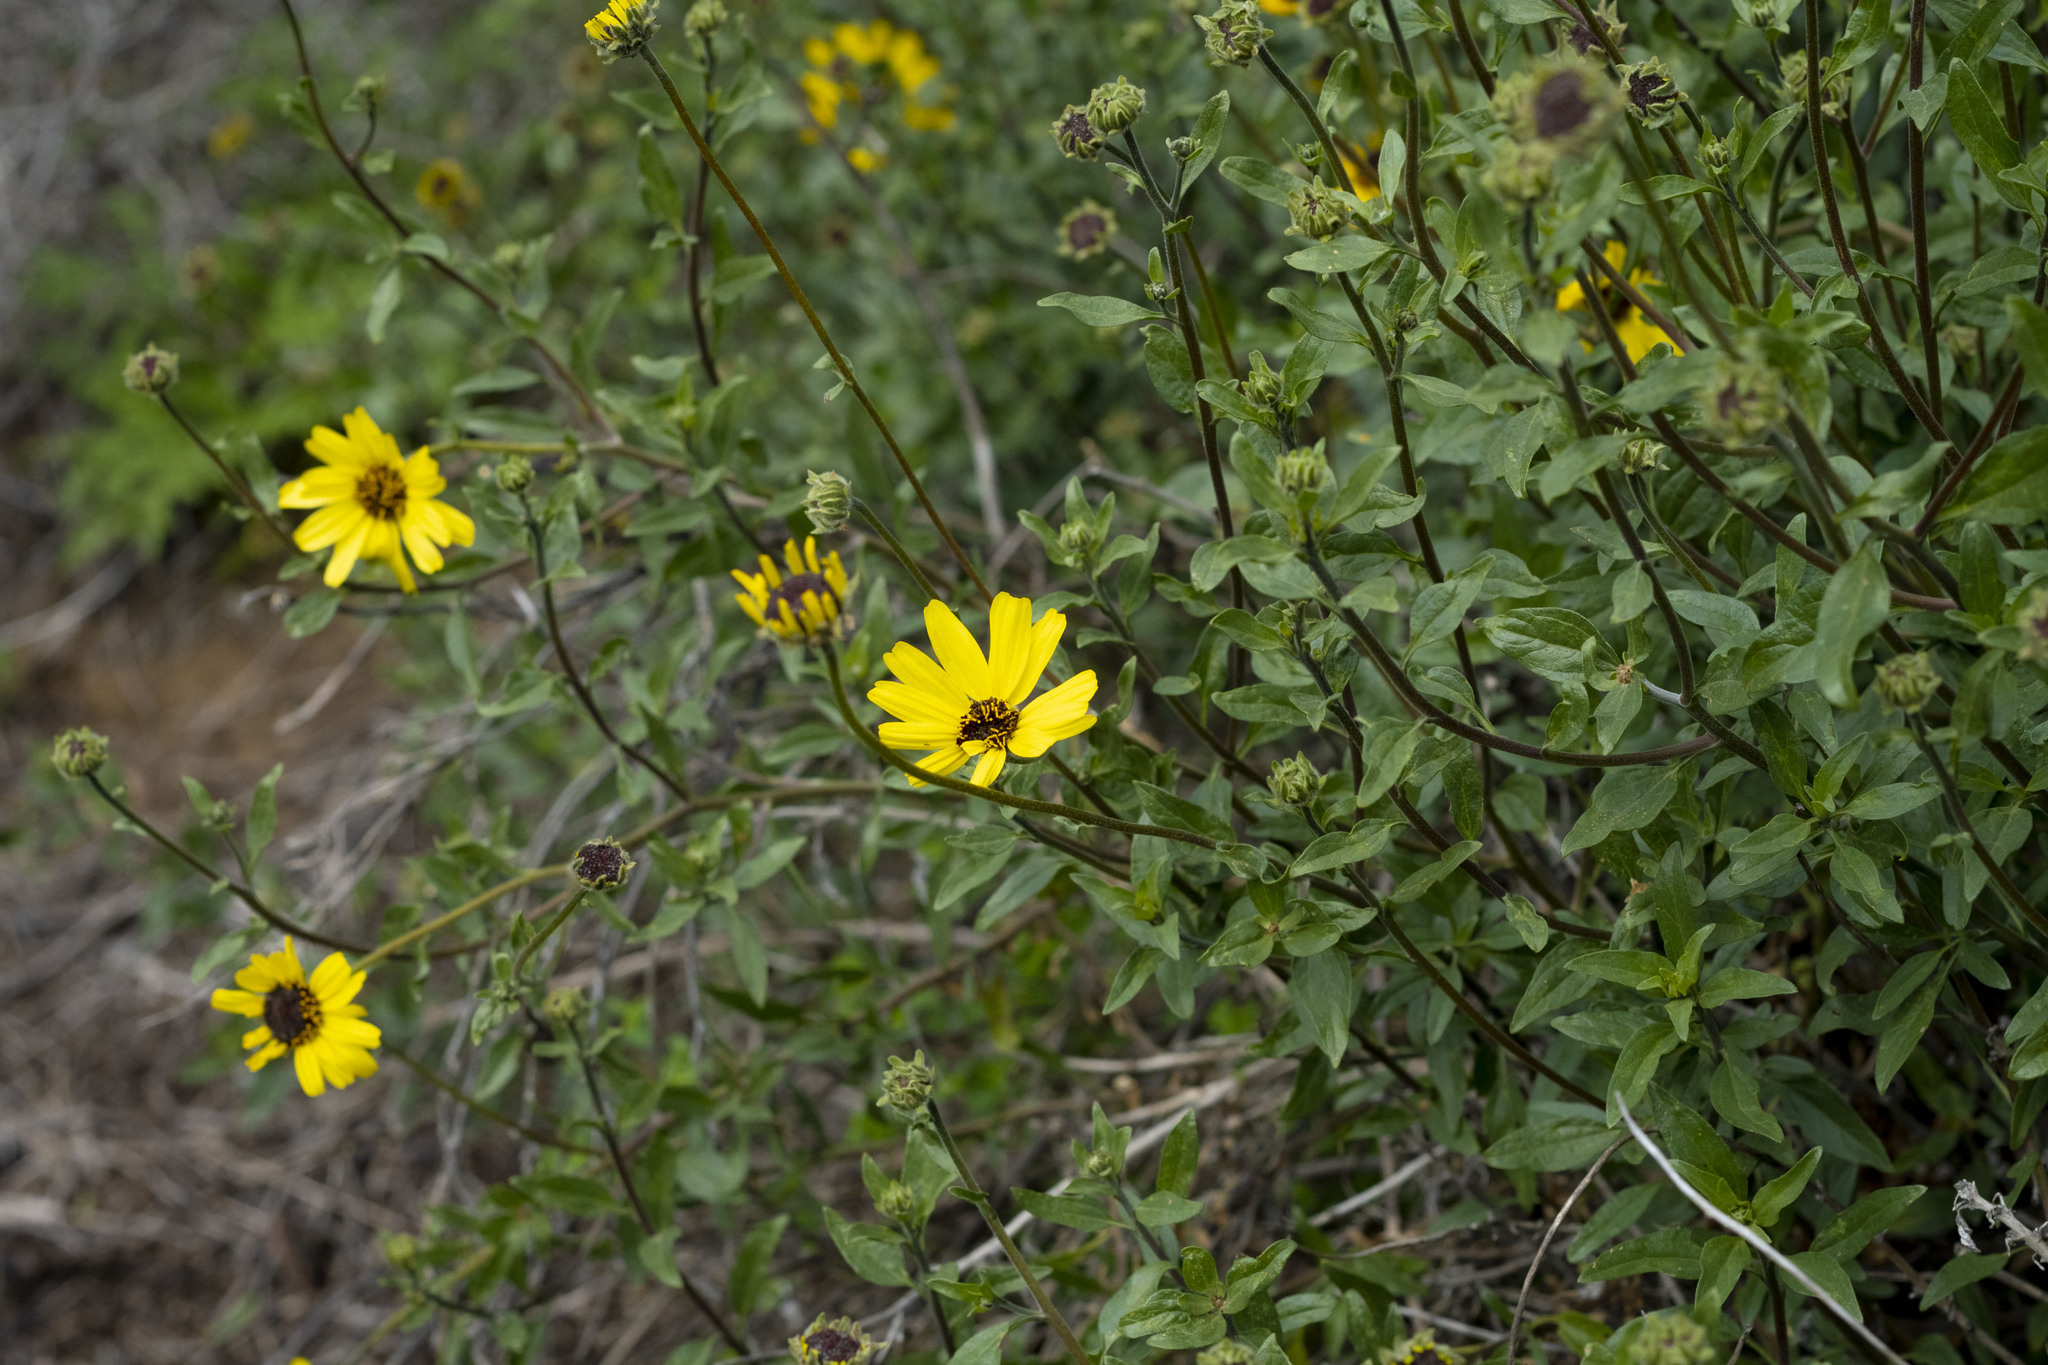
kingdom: Plantae
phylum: Tracheophyta
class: Magnoliopsida
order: Asterales
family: Asteraceae
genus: Encelia
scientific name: Encelia californica
